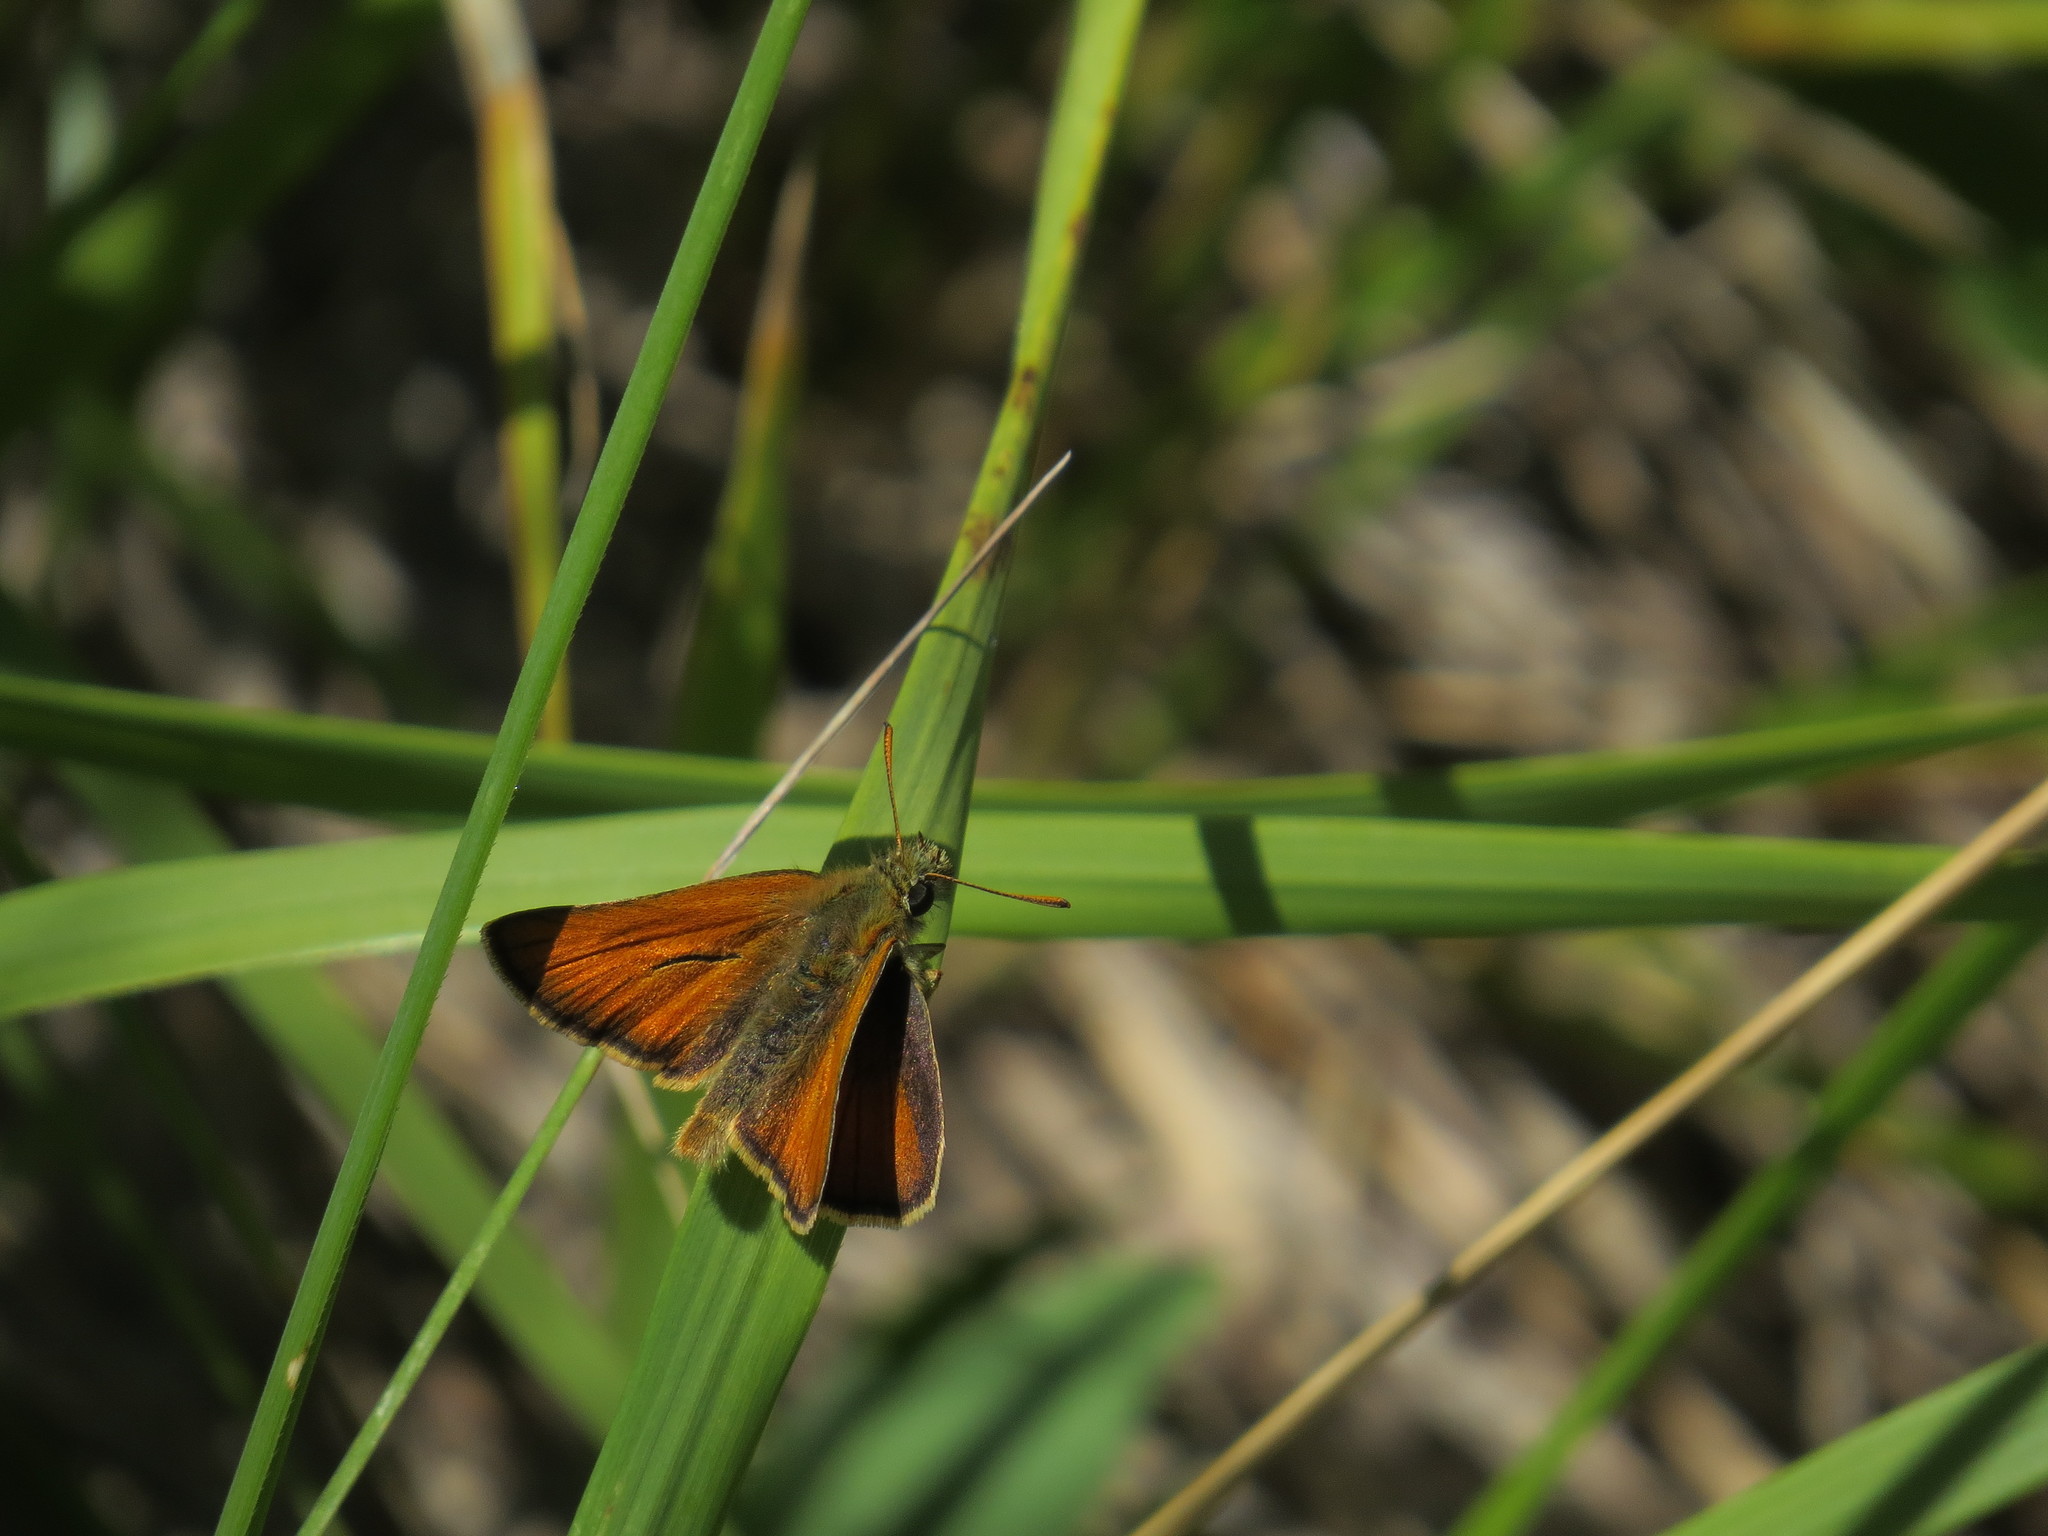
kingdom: Animalia
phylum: Arthropoda
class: Insecta
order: Lepidoptera
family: Hesperiidae
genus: Thymelicus
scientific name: Thymelicus sylvestris
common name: Small skipper
